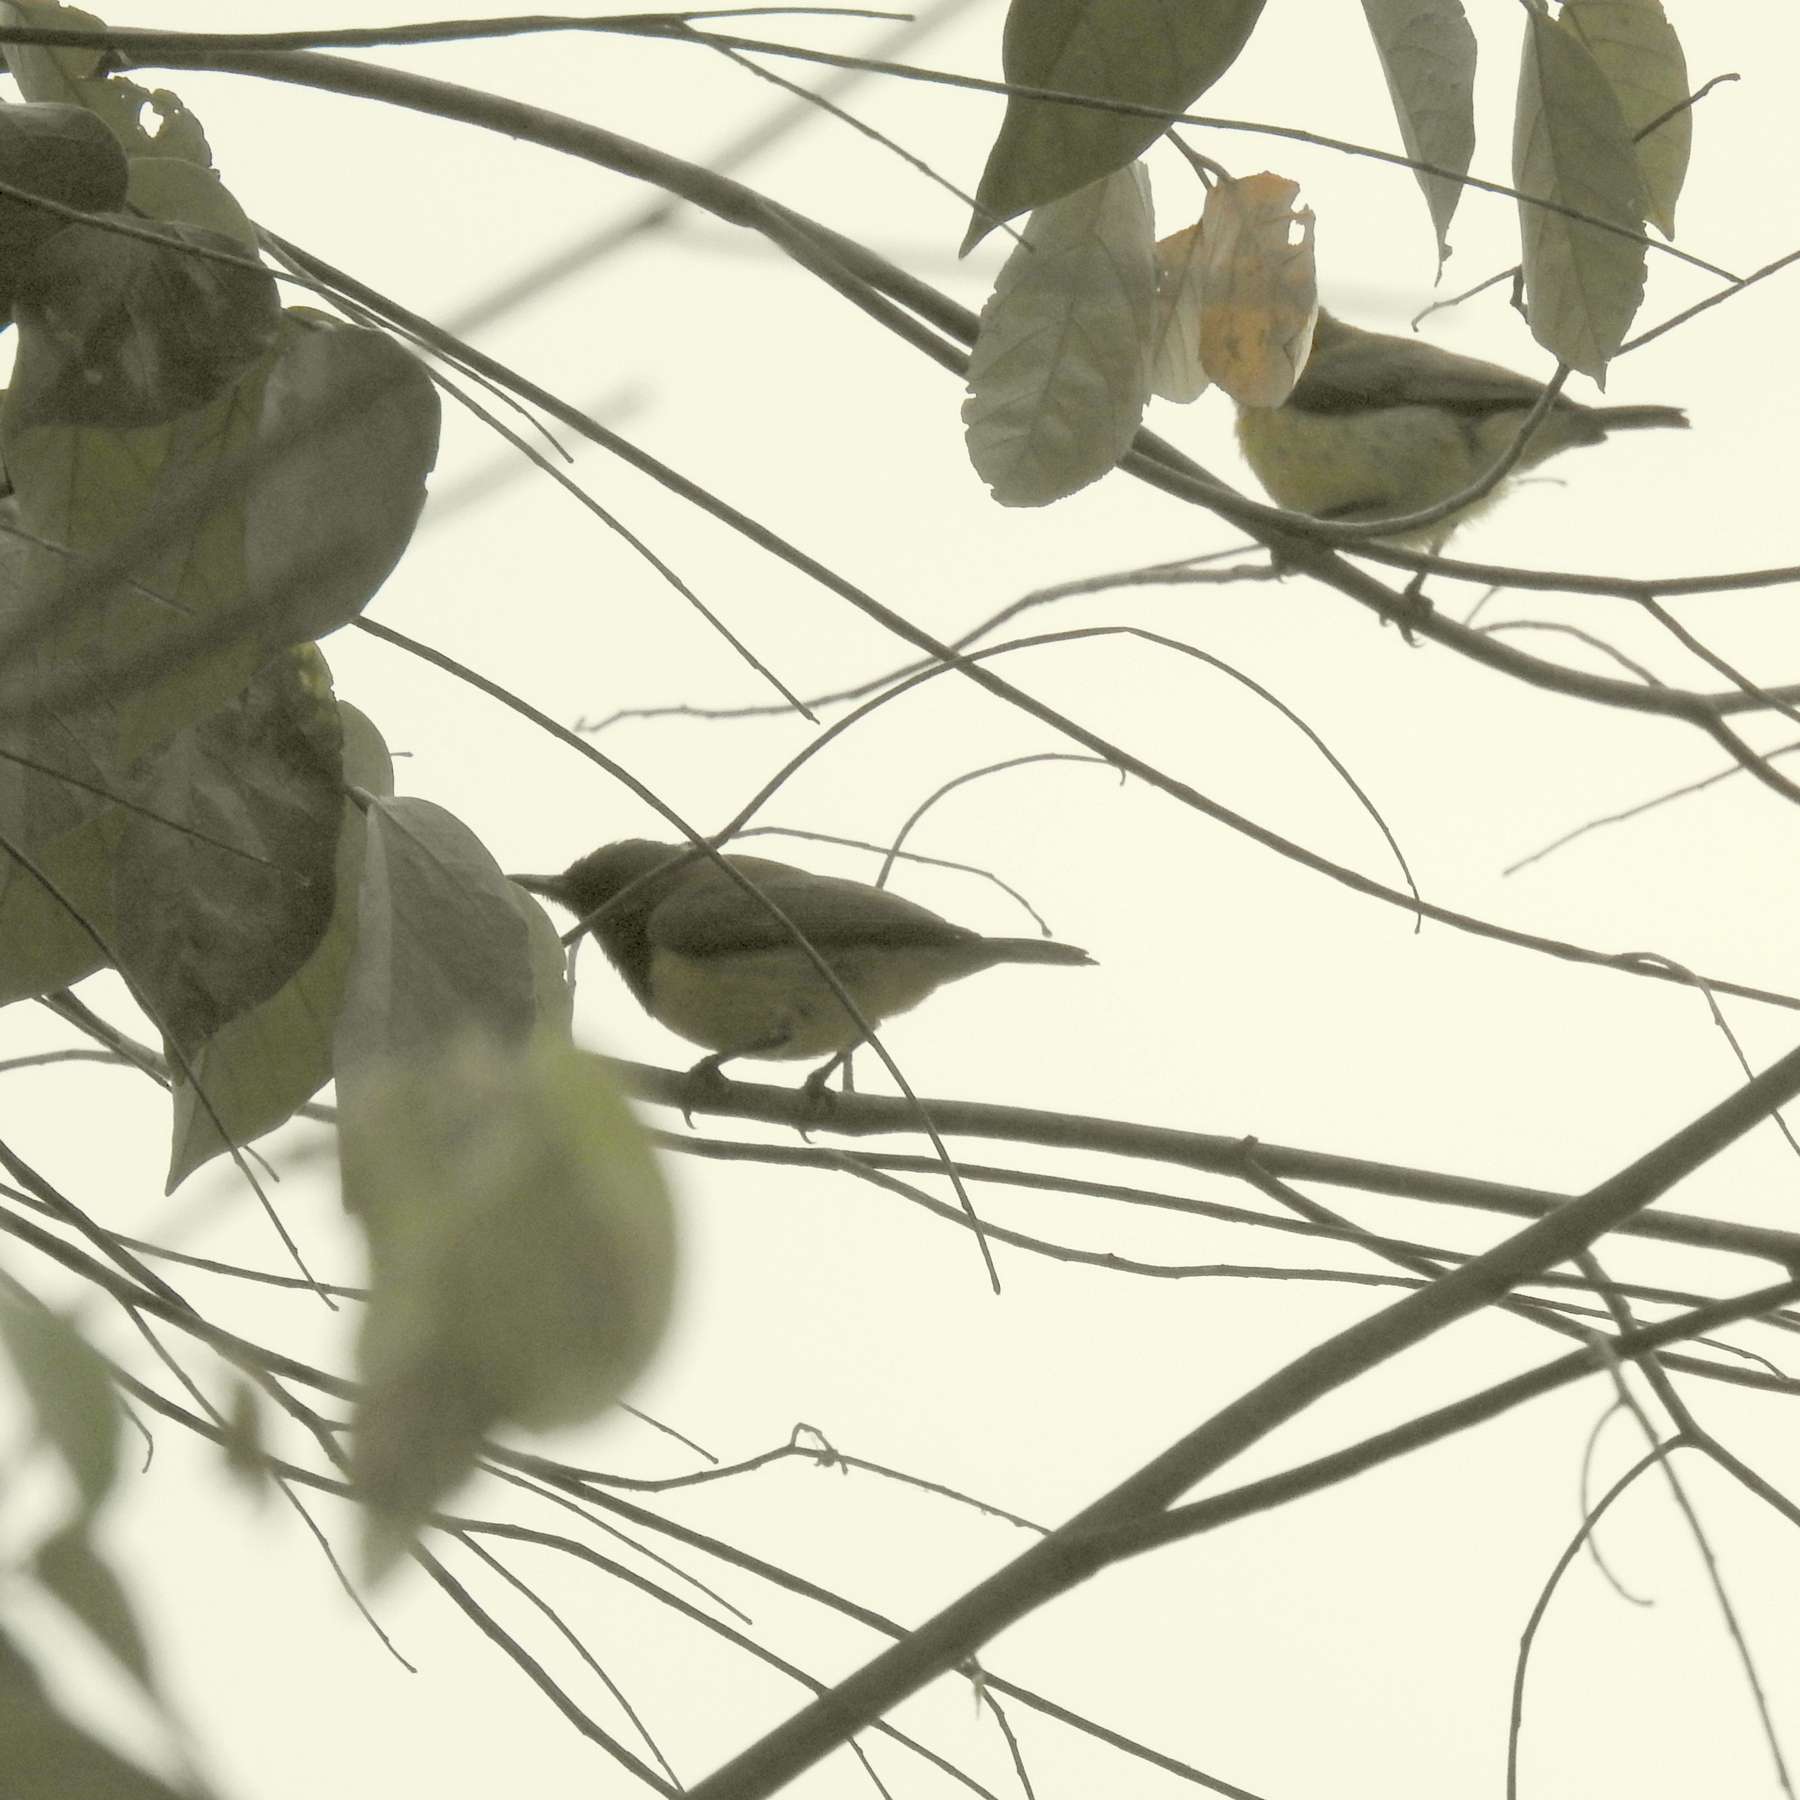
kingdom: Animalia
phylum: Chordata
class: Aves
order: Passeriformes
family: Nectariniidae
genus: Cinnyris
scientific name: Cinnyris
